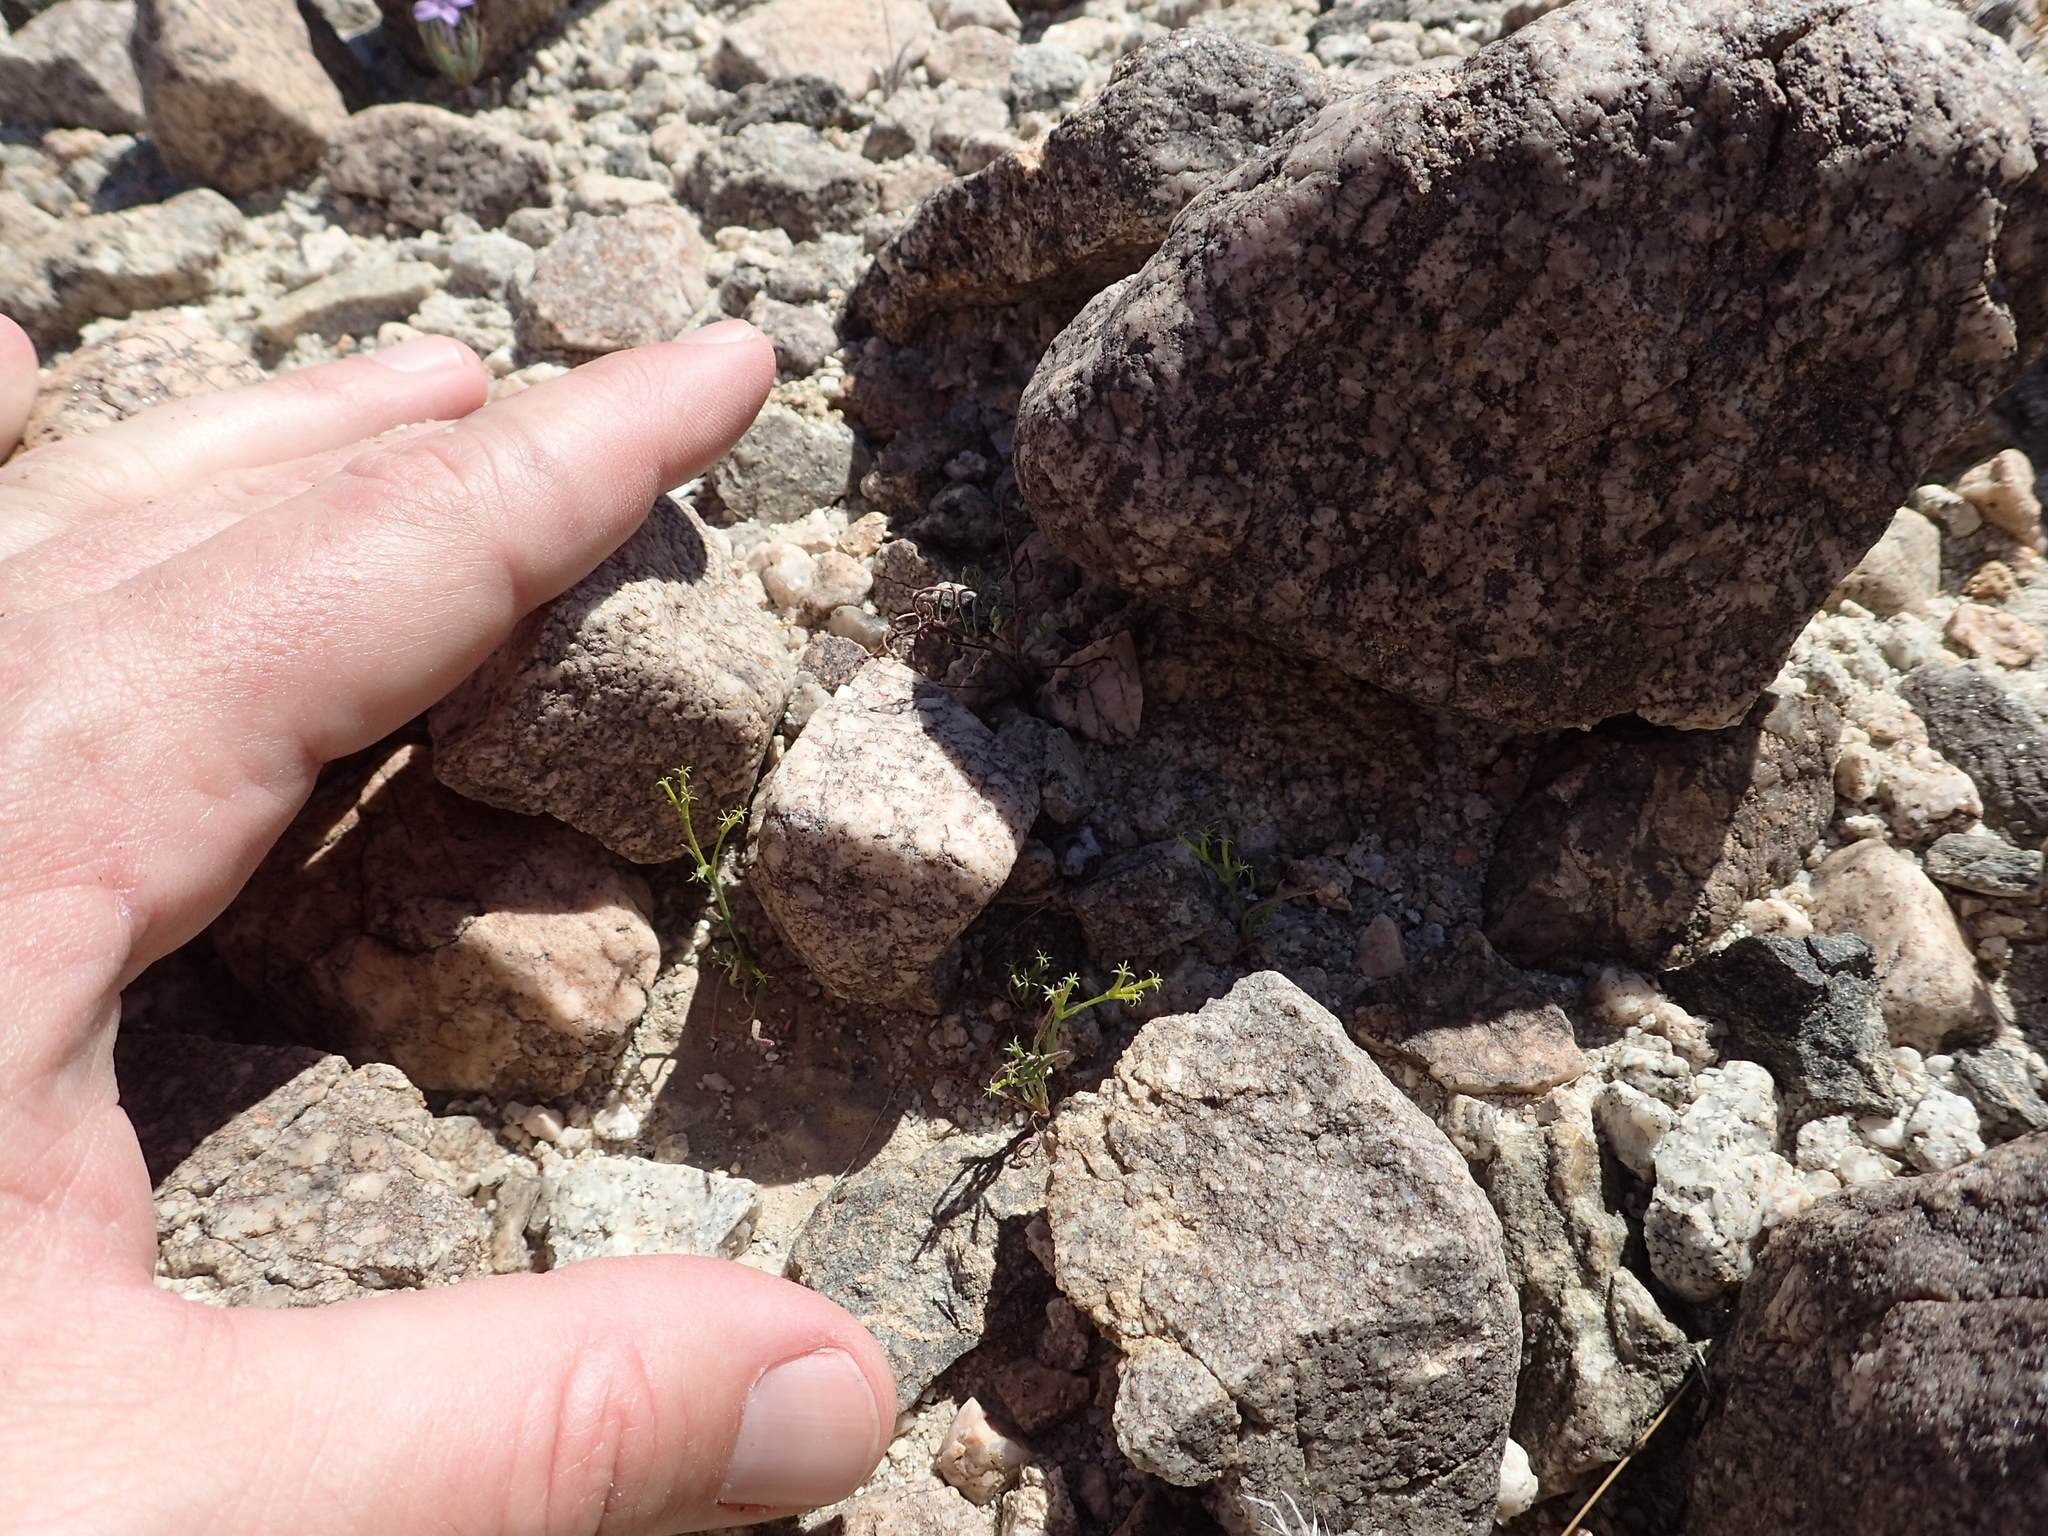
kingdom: Plantae
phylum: Tracheophyta
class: Magnoliopsida
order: Caryophyllales
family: Polygonaceae
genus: Chorizanthe
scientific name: Chorizanthe brevicornu
